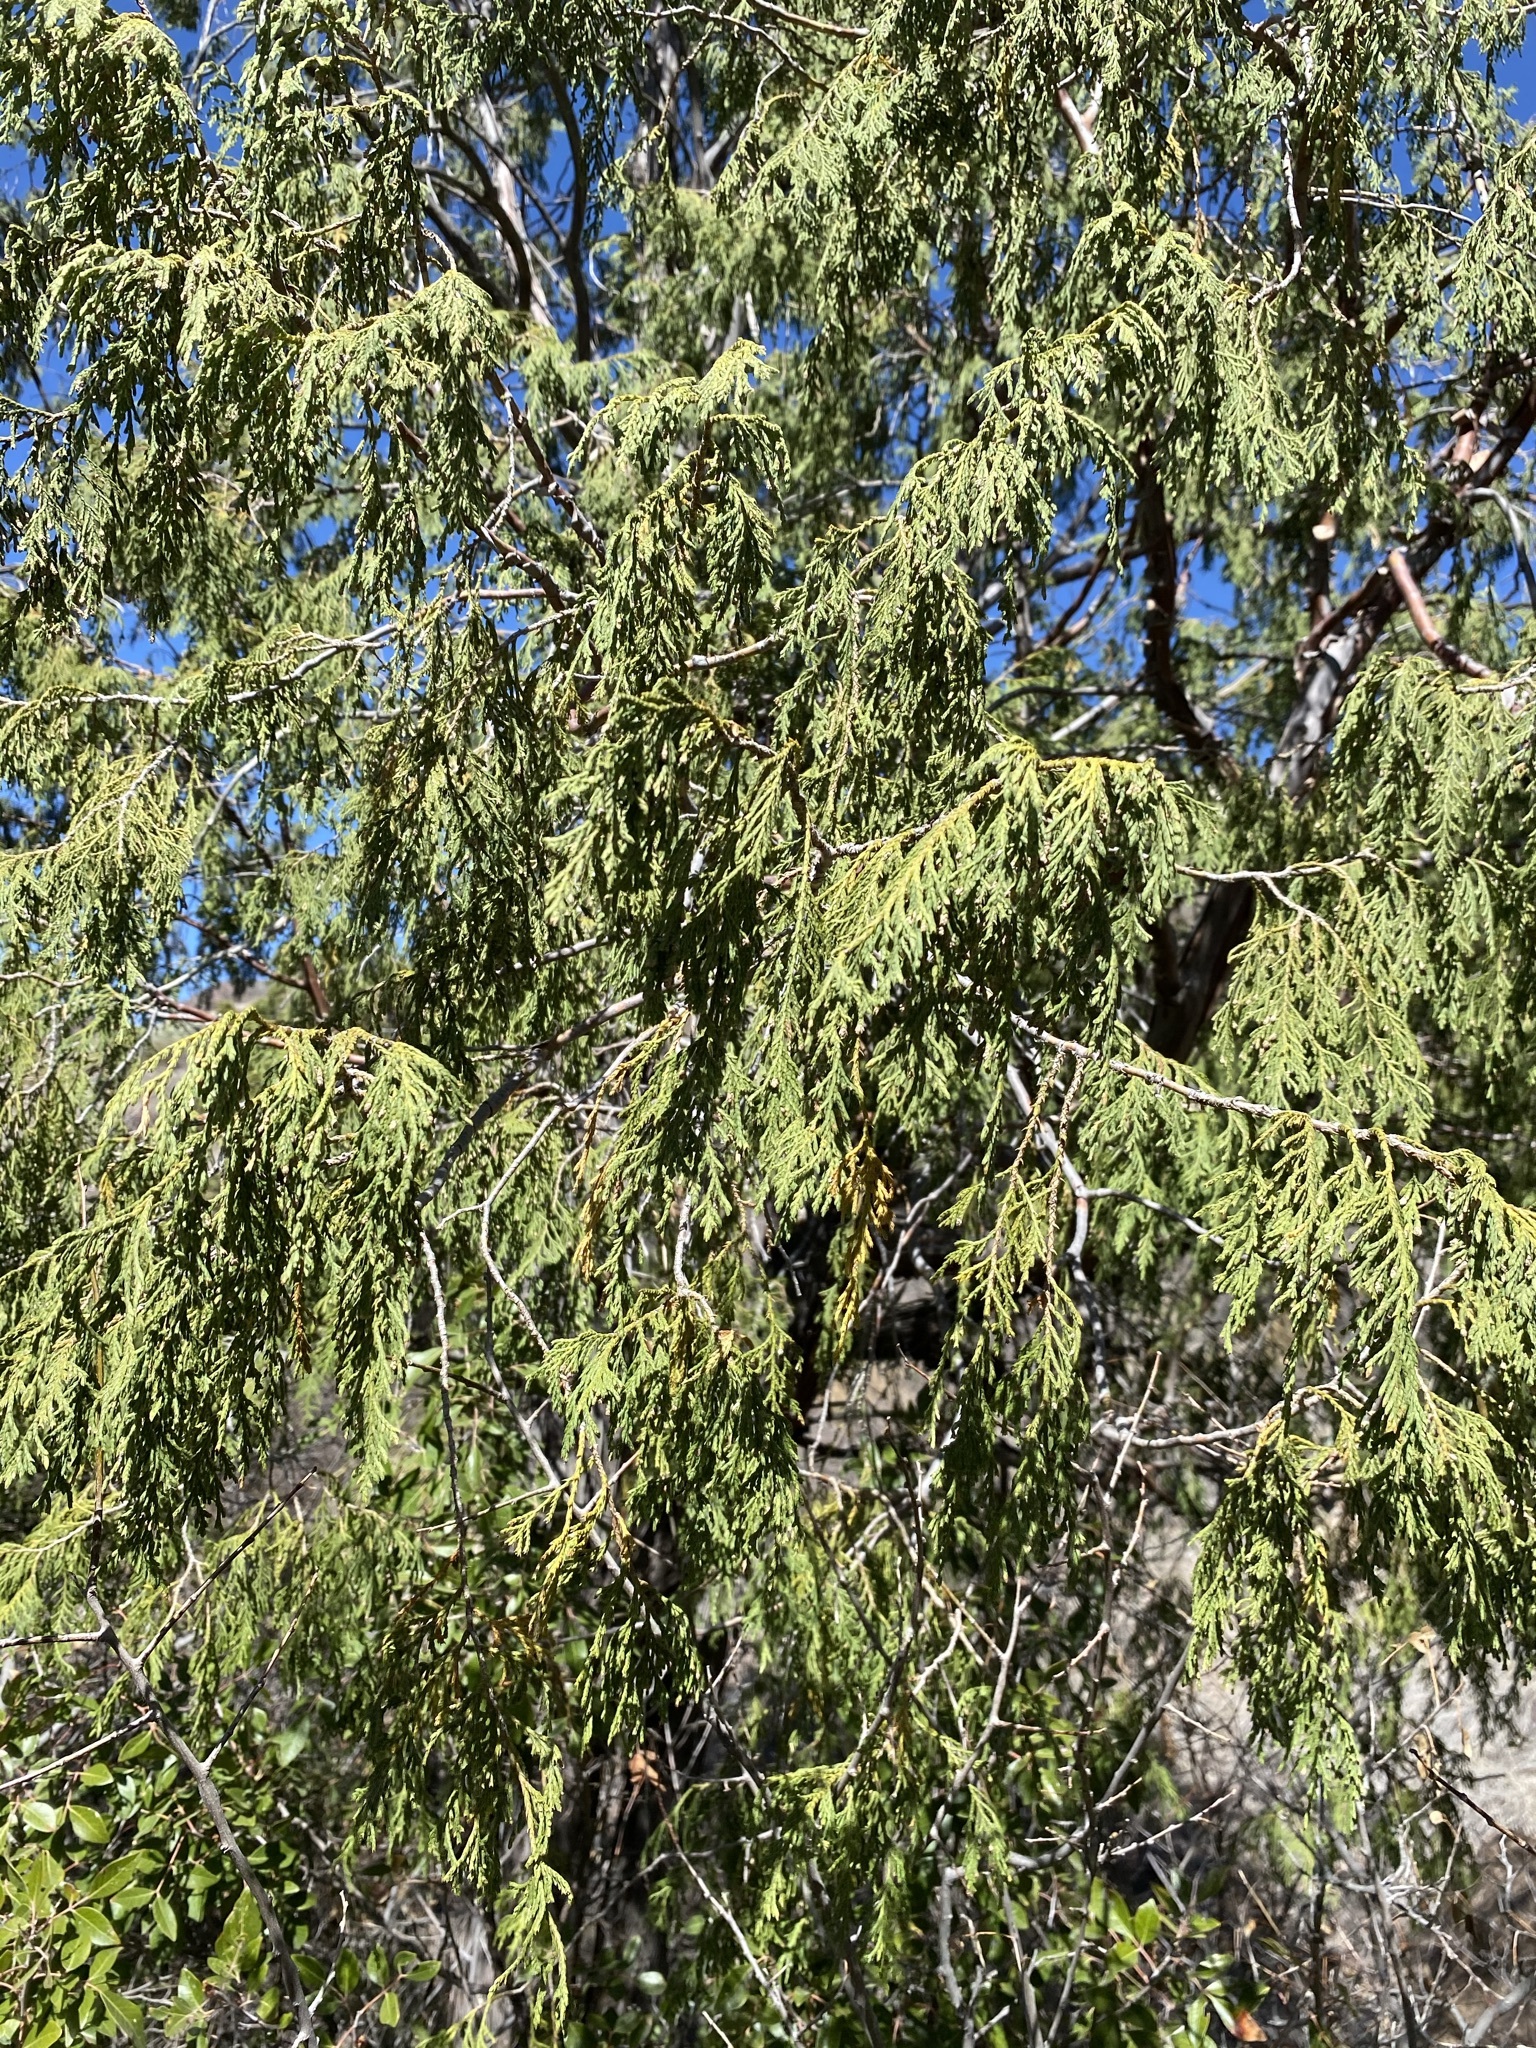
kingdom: Plantae
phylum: Tracheophyta
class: Pinopsida
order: Pinales
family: Cupressaceae
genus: Juniperus
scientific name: Juniperus flaccida
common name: Drooping juniper
